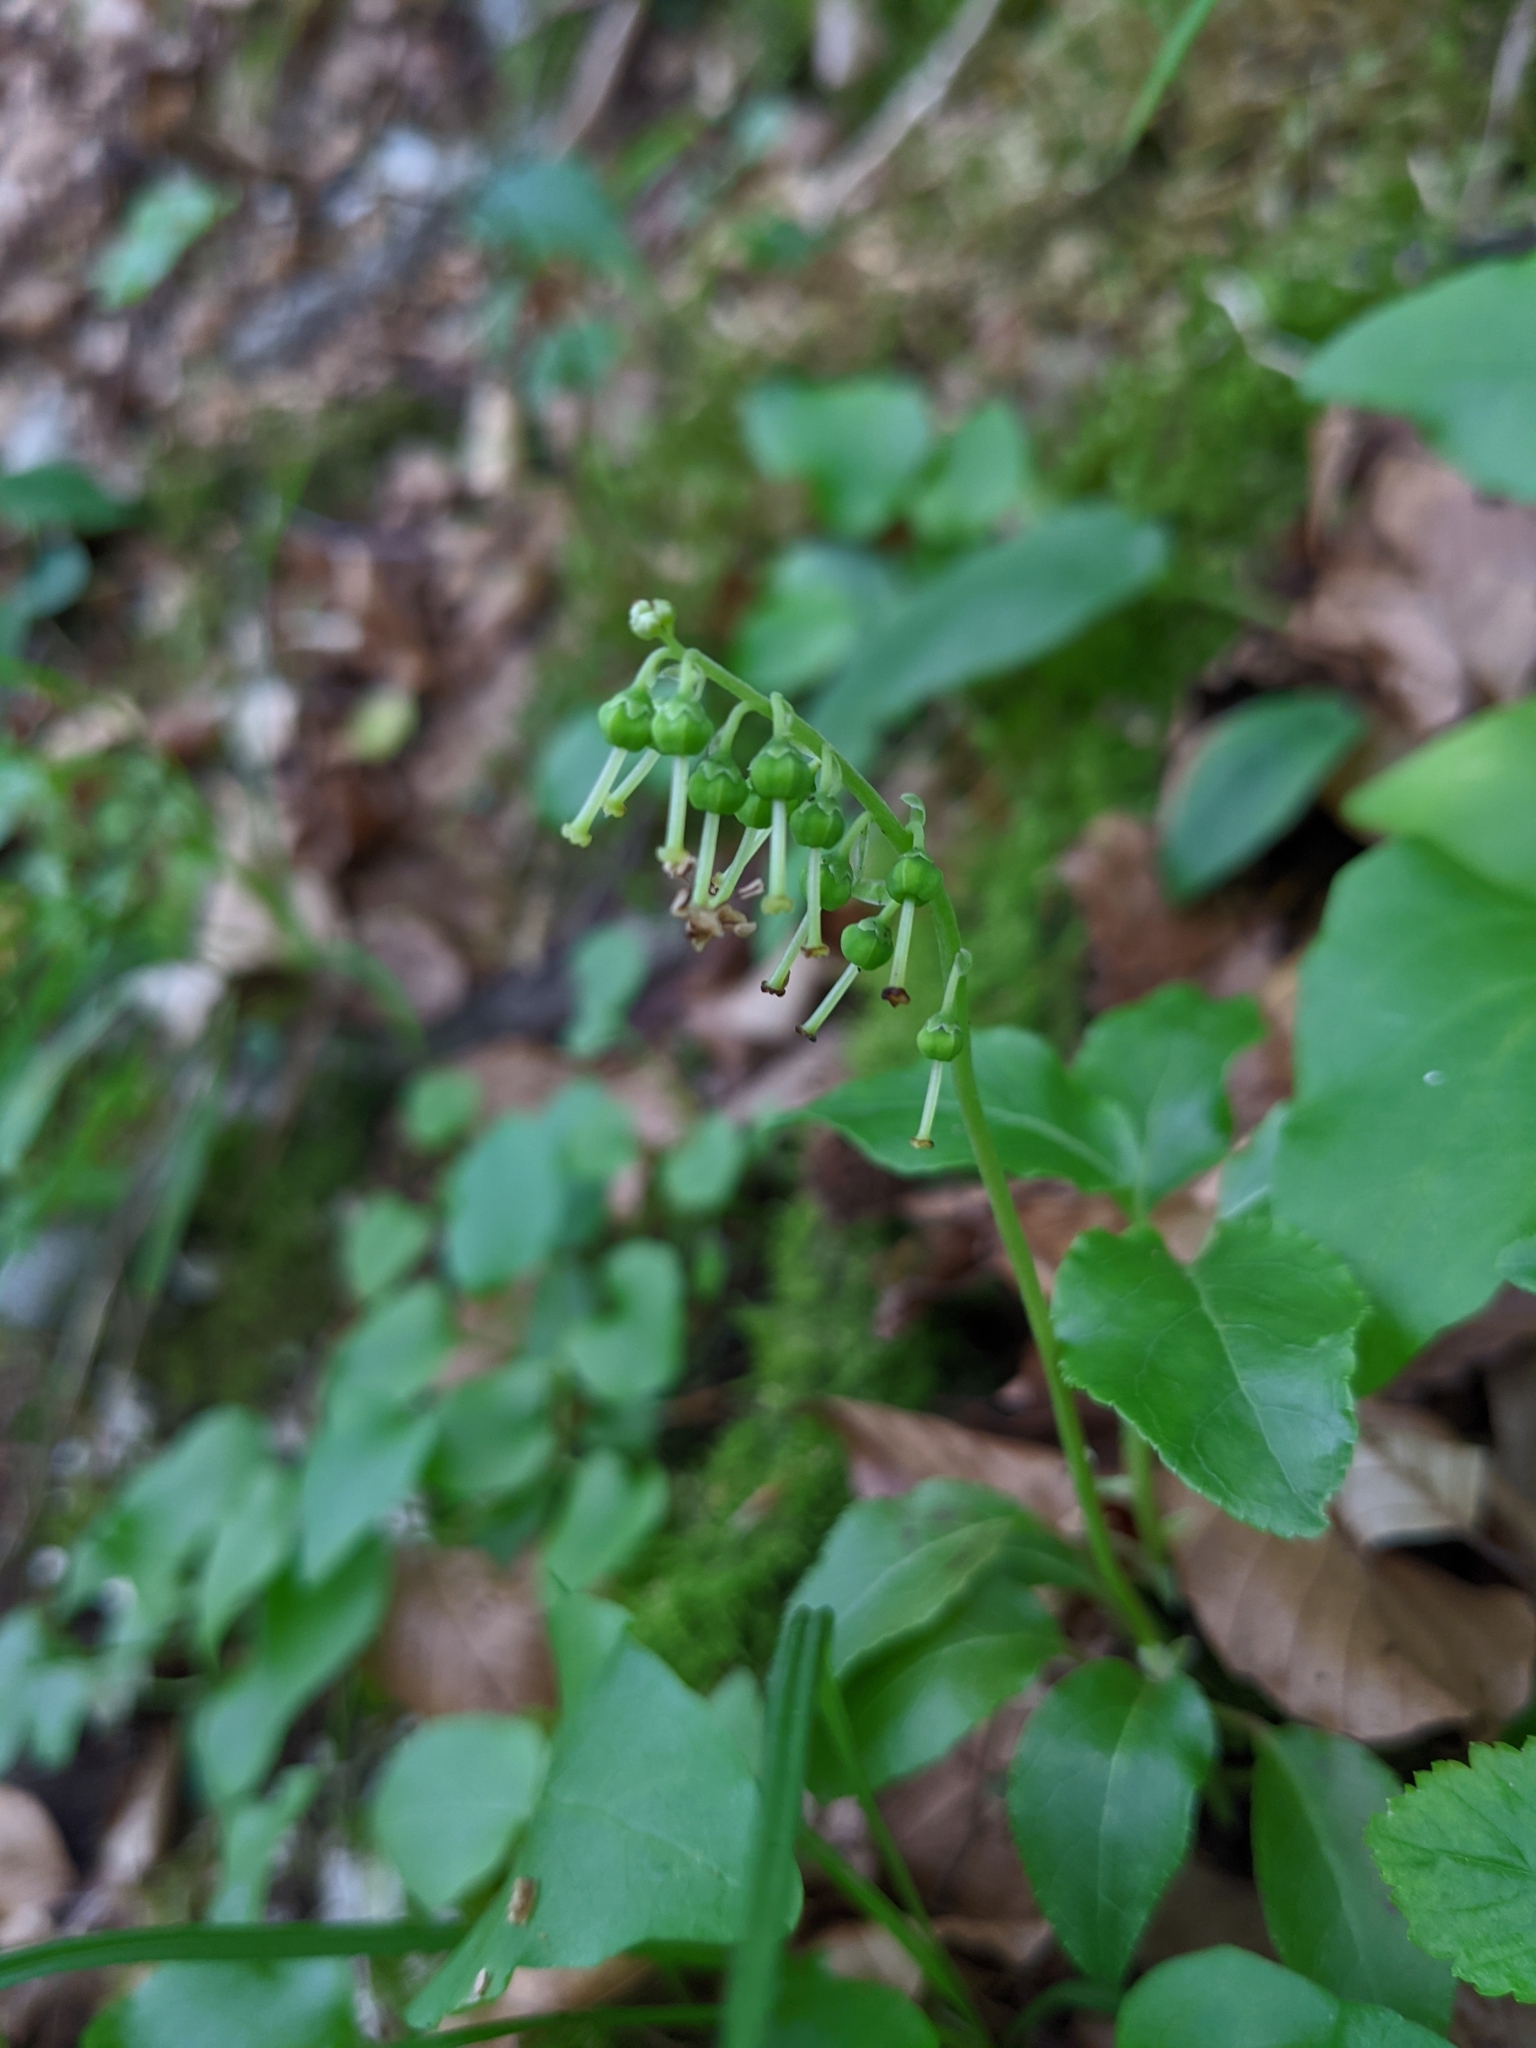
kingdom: Plantae
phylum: Tracheophyta
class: Magnoliopsida
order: Ericales
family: Ericaceae
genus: Orthilia
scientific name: Orthilia secunda
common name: One-sided orthilia
